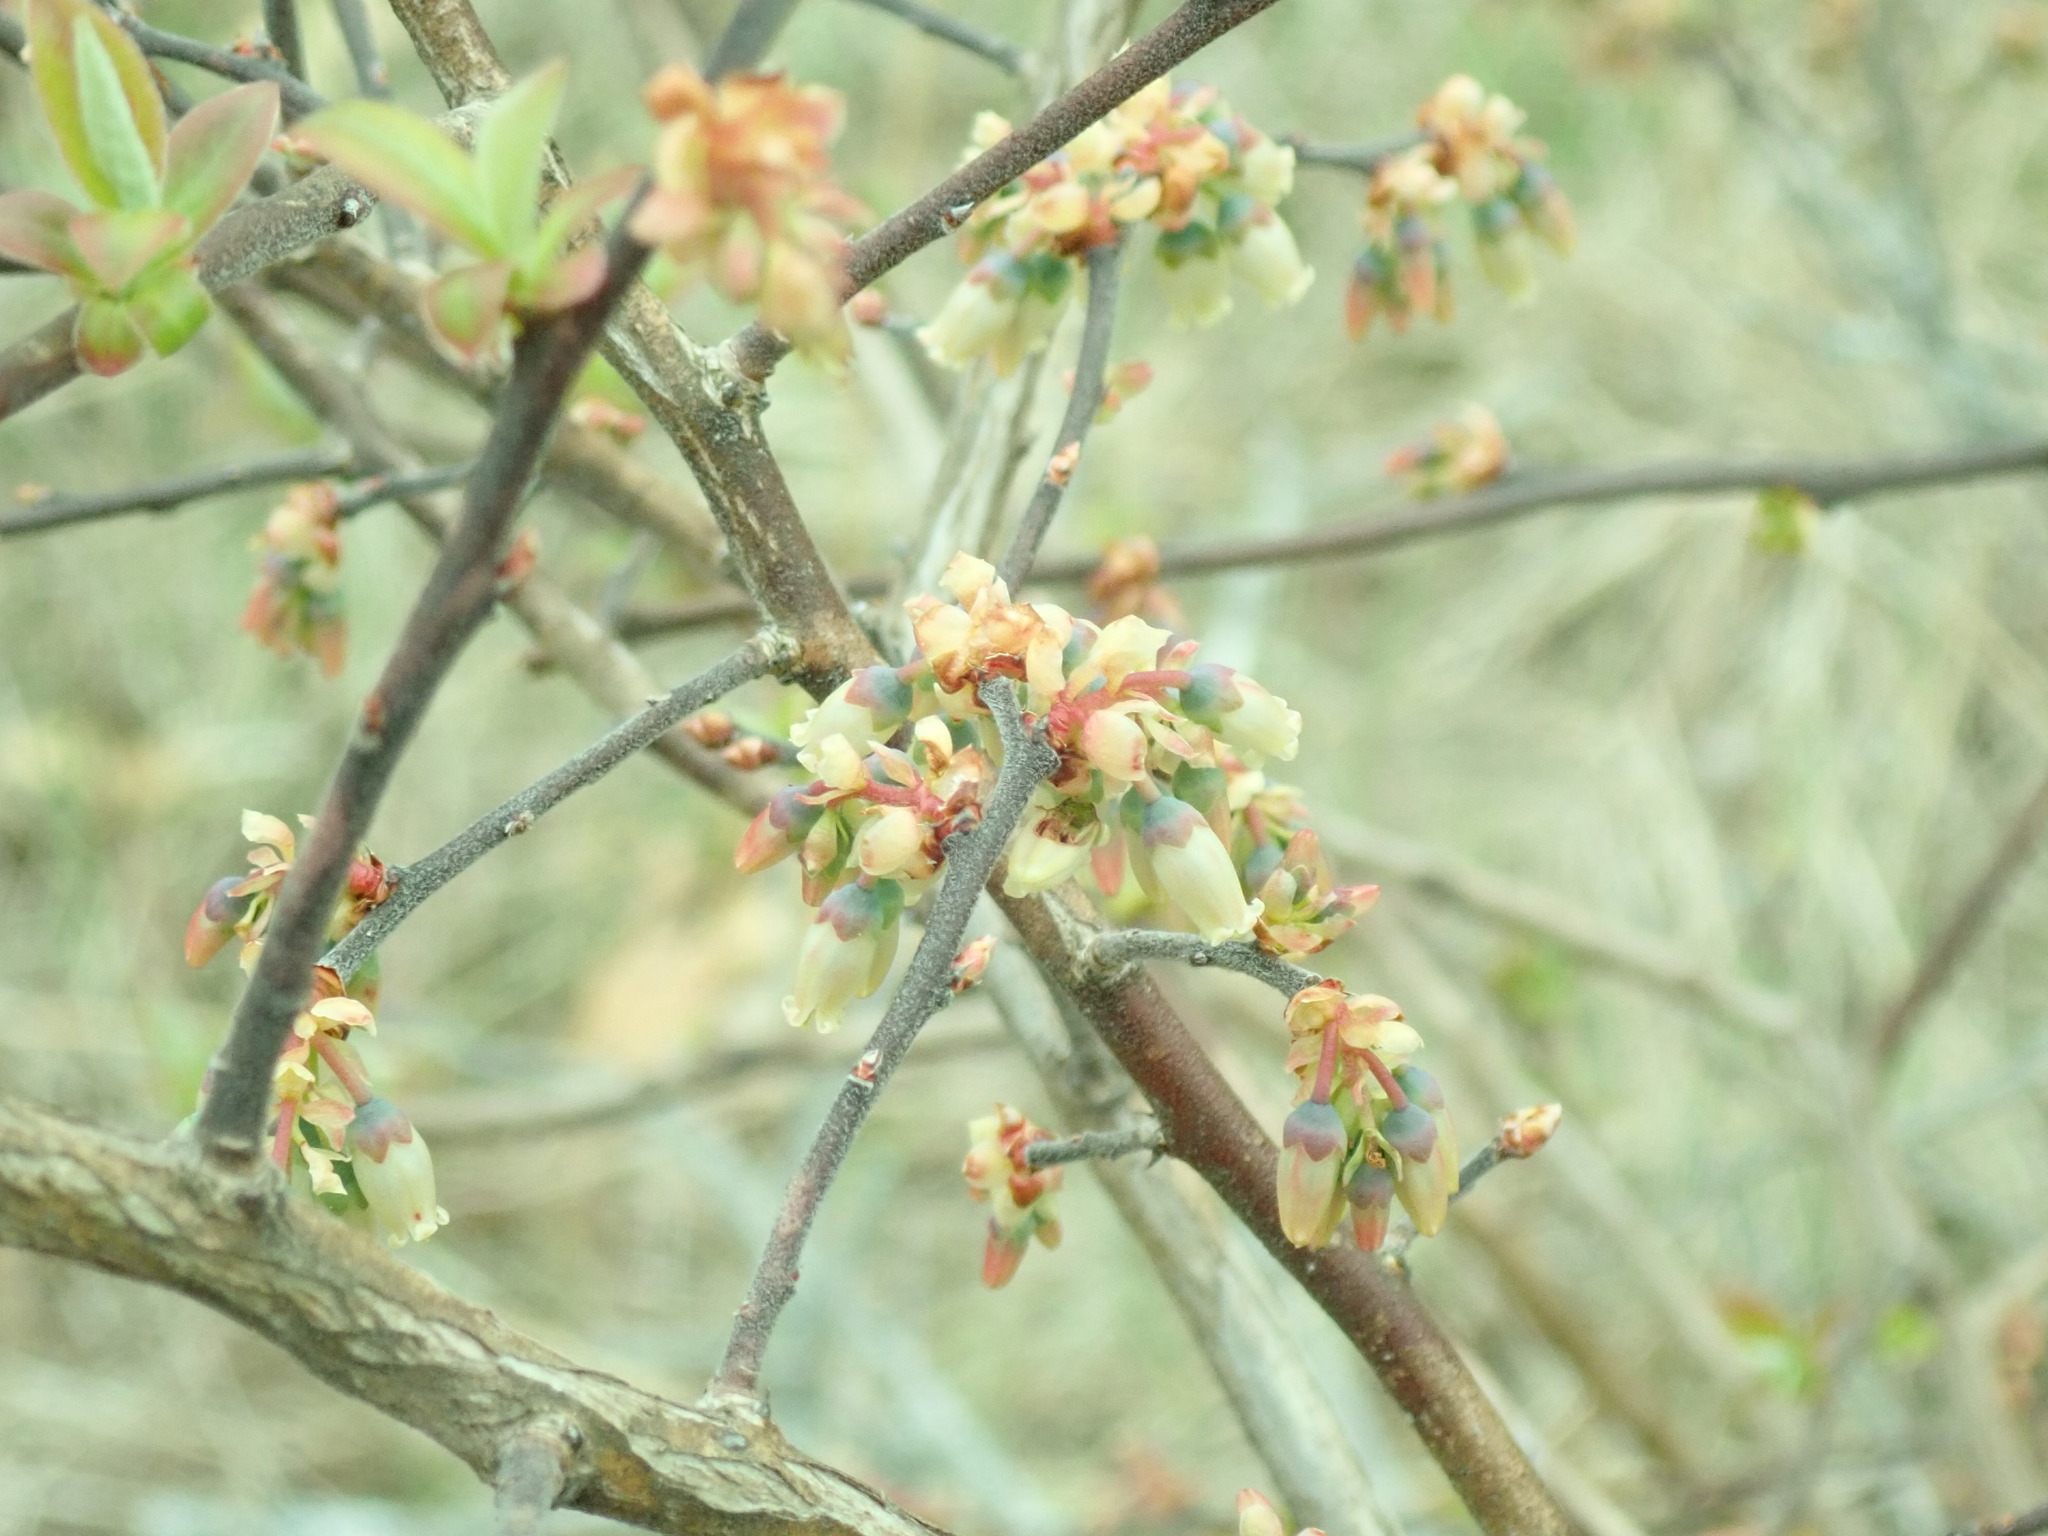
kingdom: Plantae
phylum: Tracheophyta
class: Magnoliopsida
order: Ericales
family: Ericaceae
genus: Vaccinium
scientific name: Vaccinium corymbosum
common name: Blueberry
